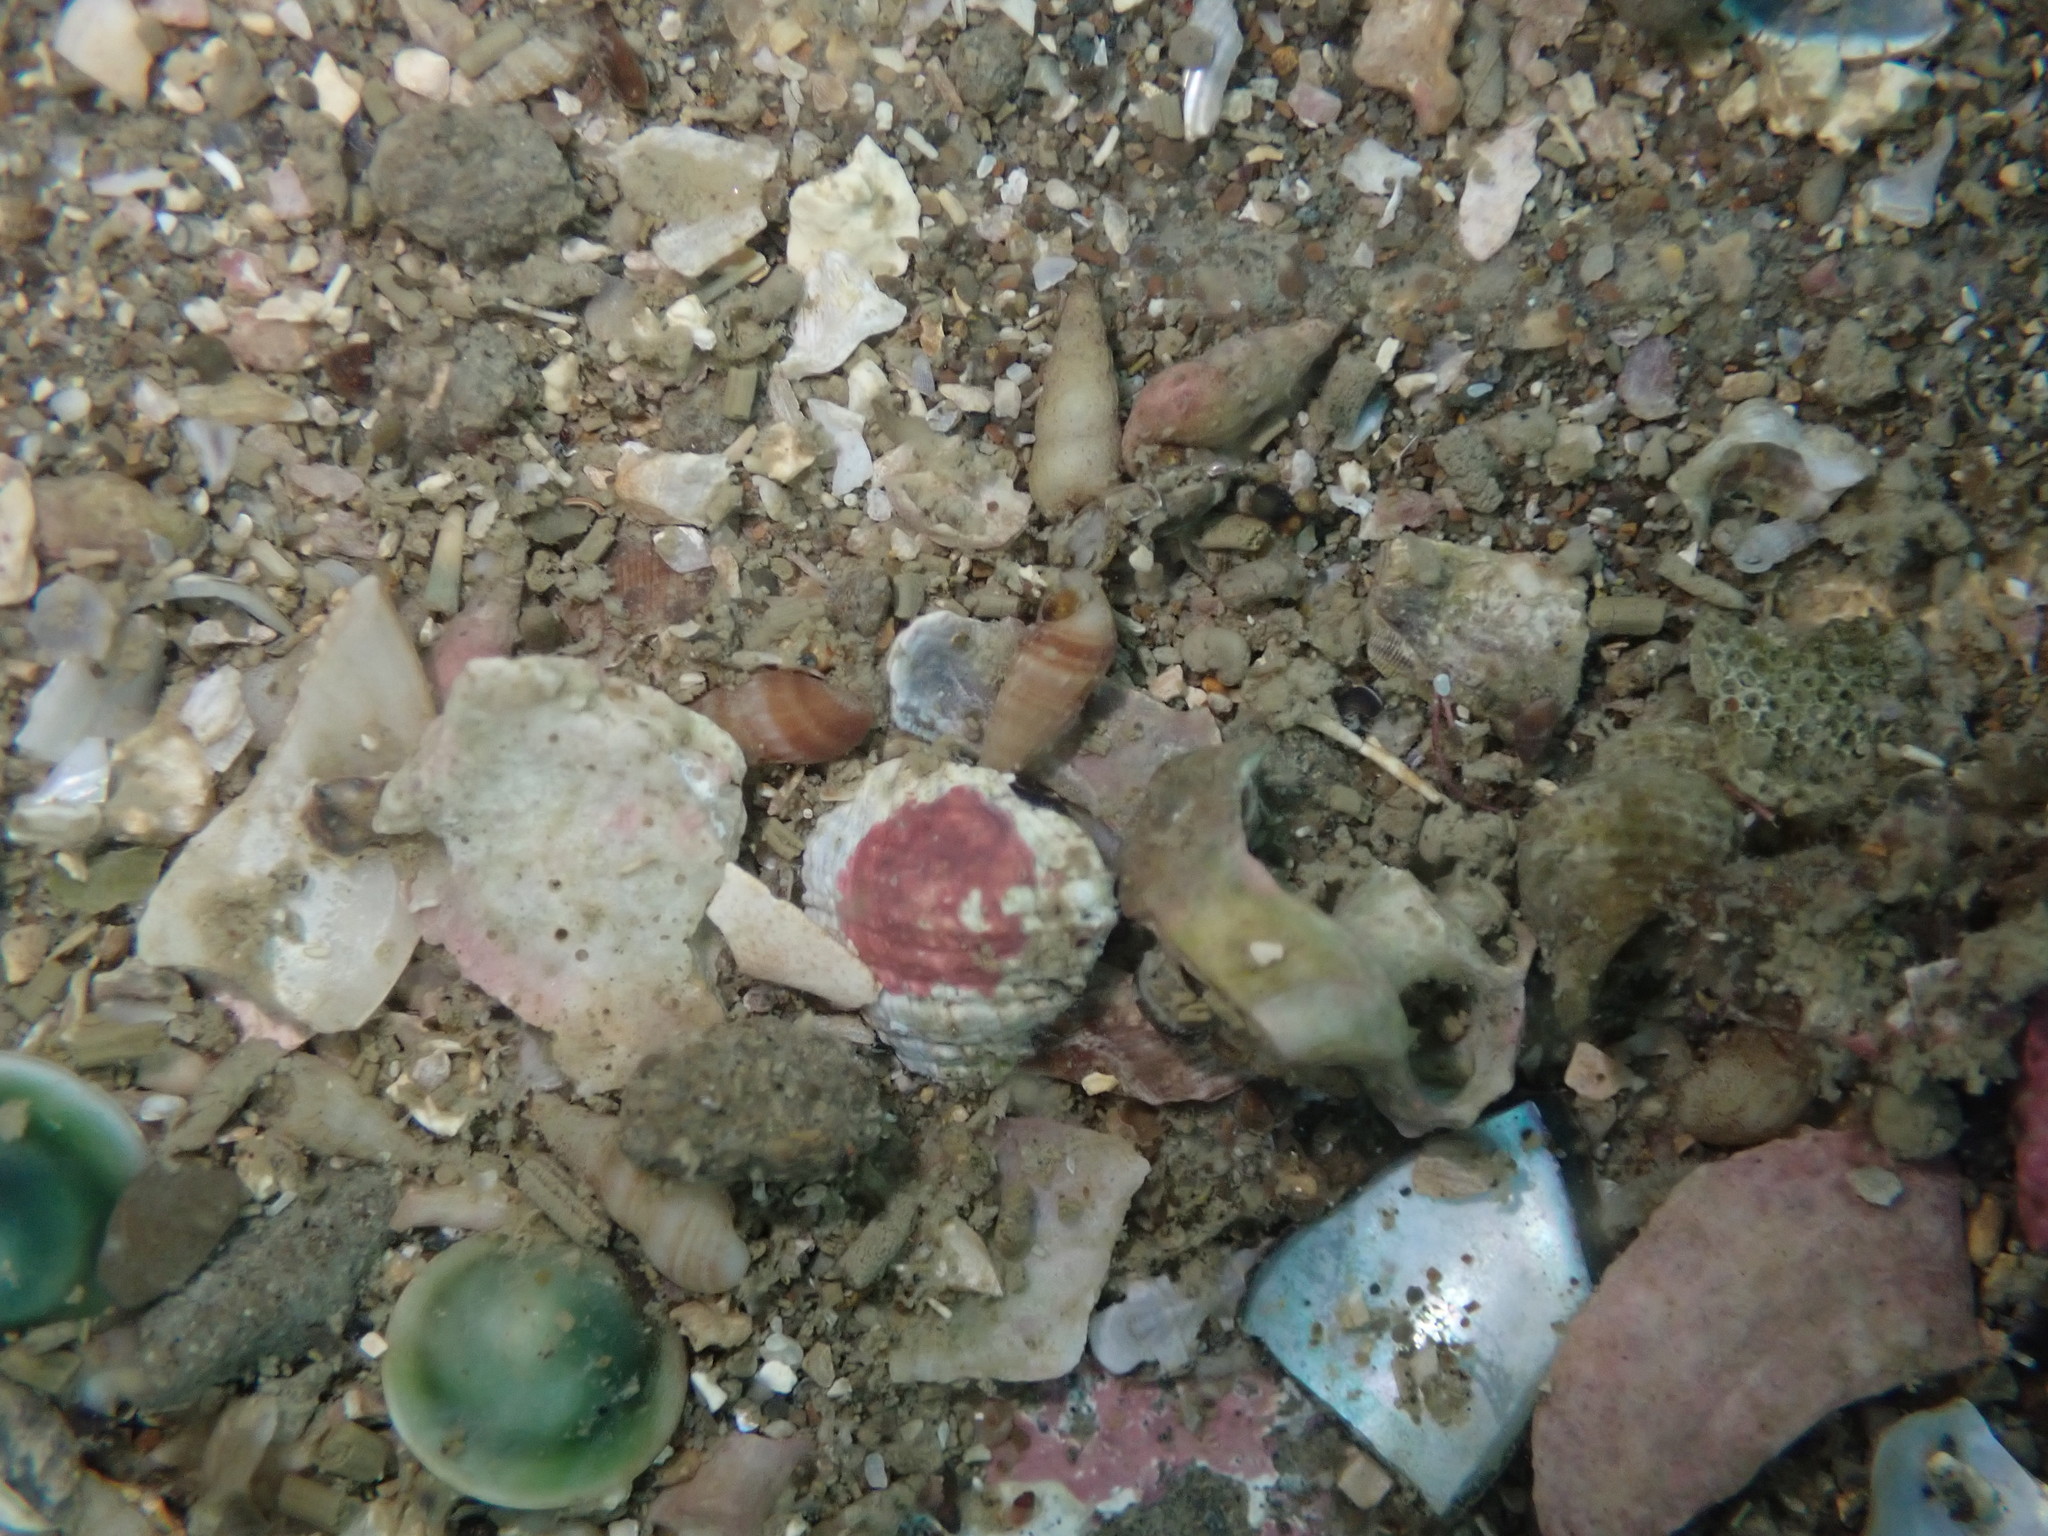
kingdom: Animalia
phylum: Mollusca
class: Gastropoda
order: Littorinimorpha
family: Rissoinidae
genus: Rissoina
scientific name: Rissoina chathamensis
